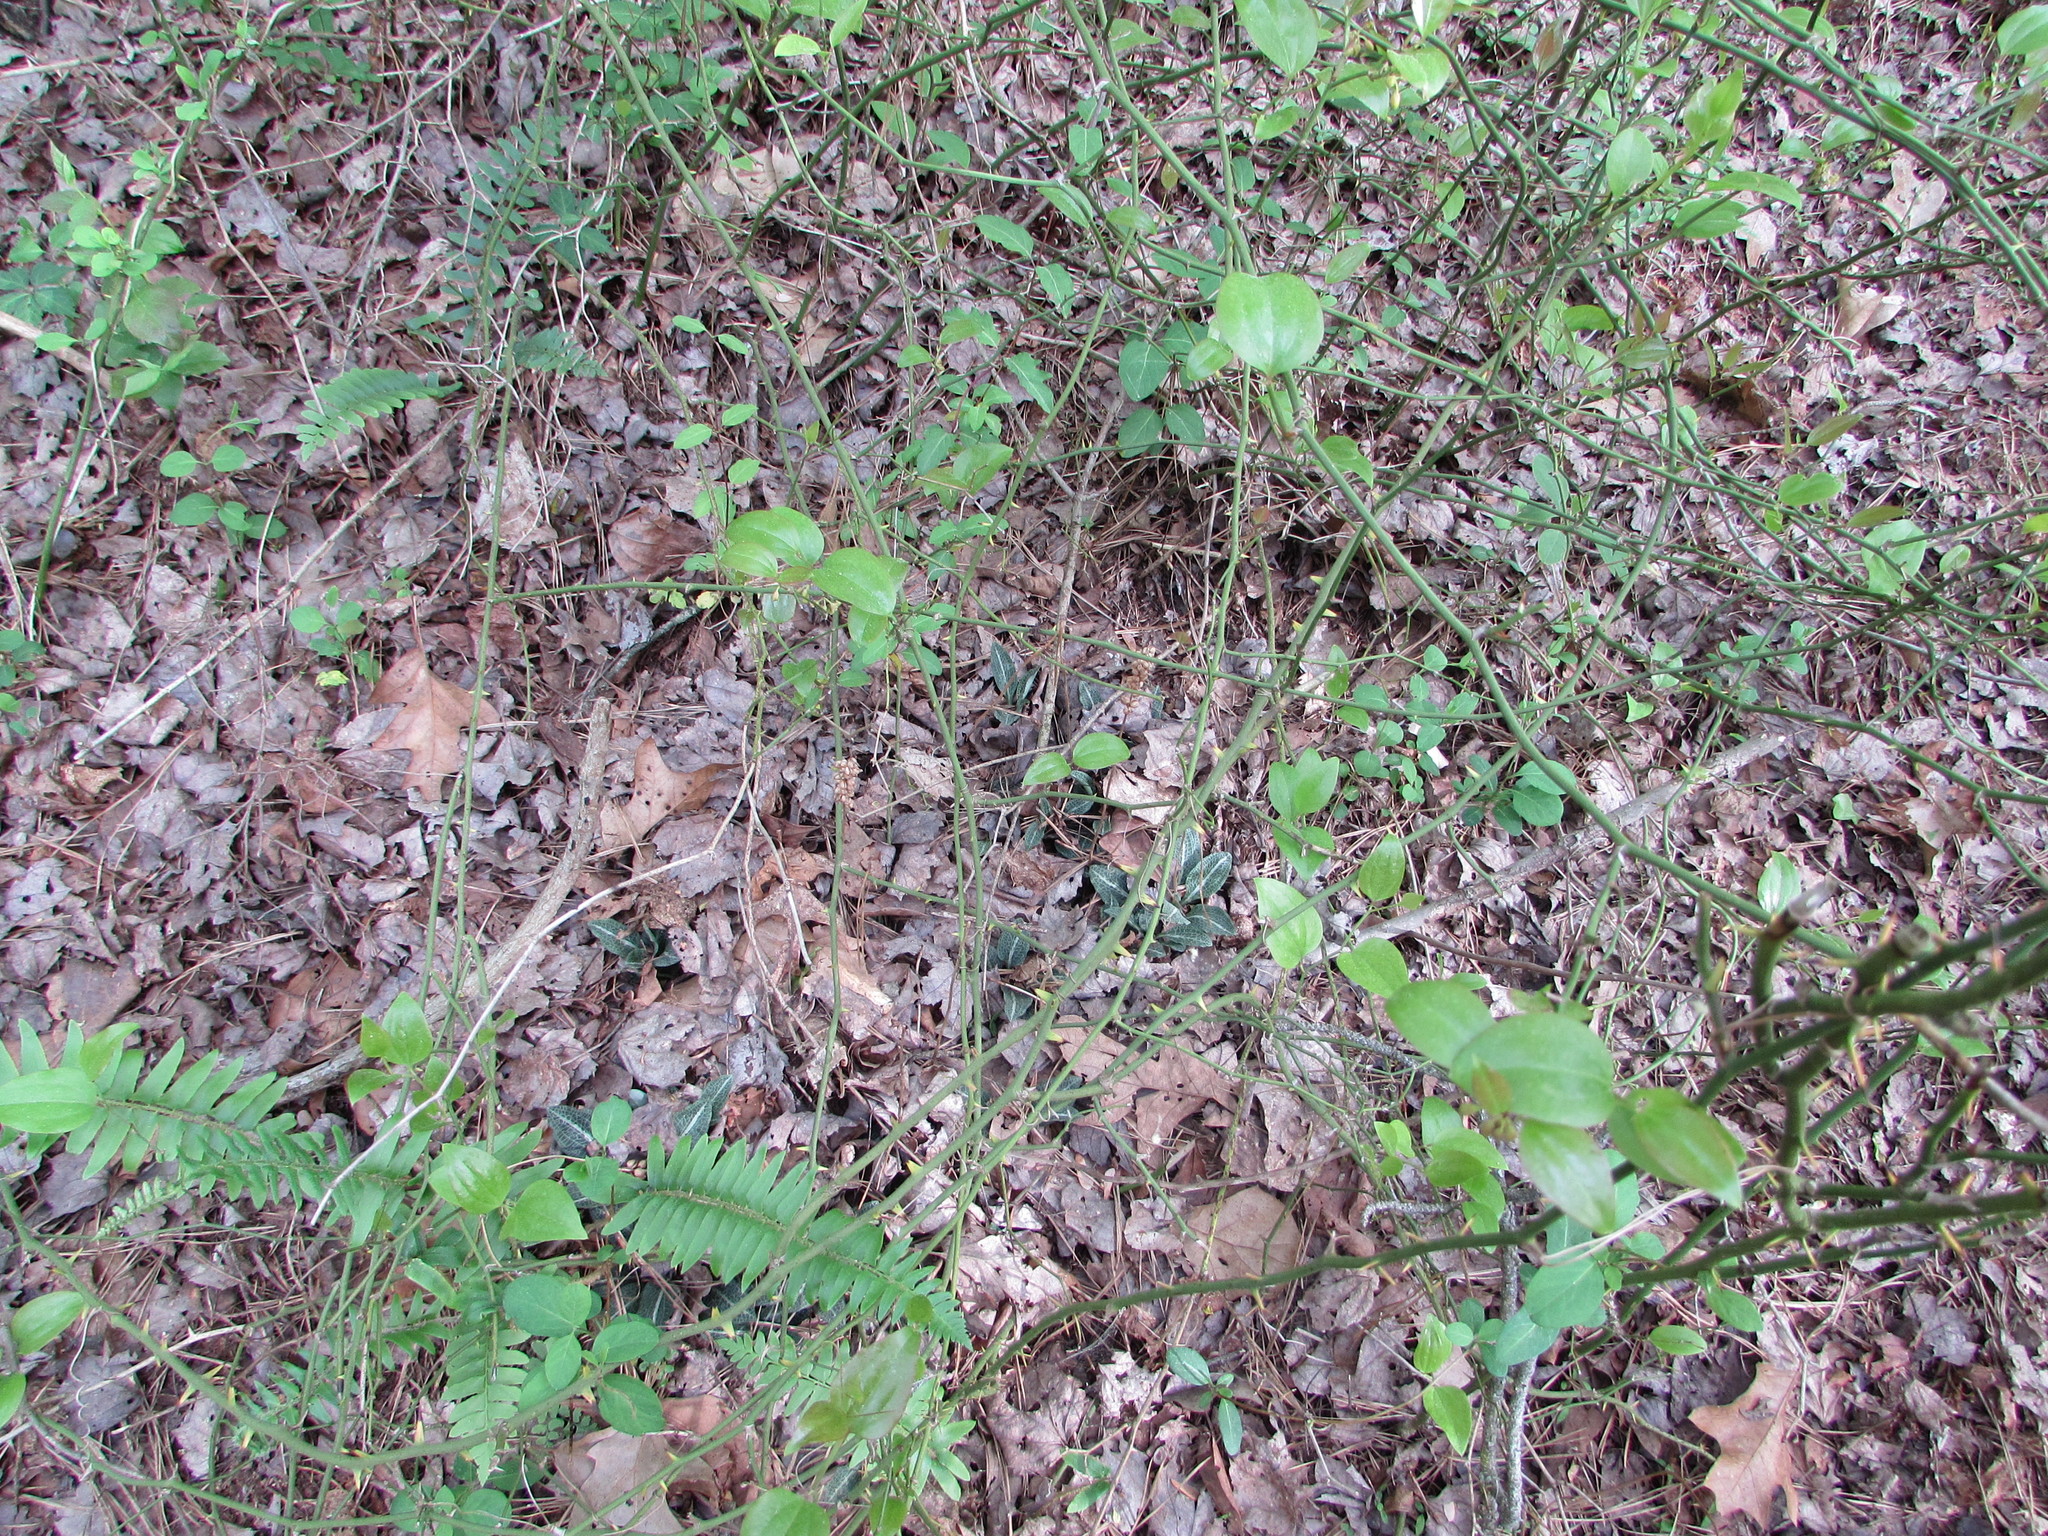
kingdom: Plantae
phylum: Tracheophyta
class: Liliopsida
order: Asparagales
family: Orchidaceae
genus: Goodyera
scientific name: Goodyera pubescens
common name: Downy rattlesnake-plantain
